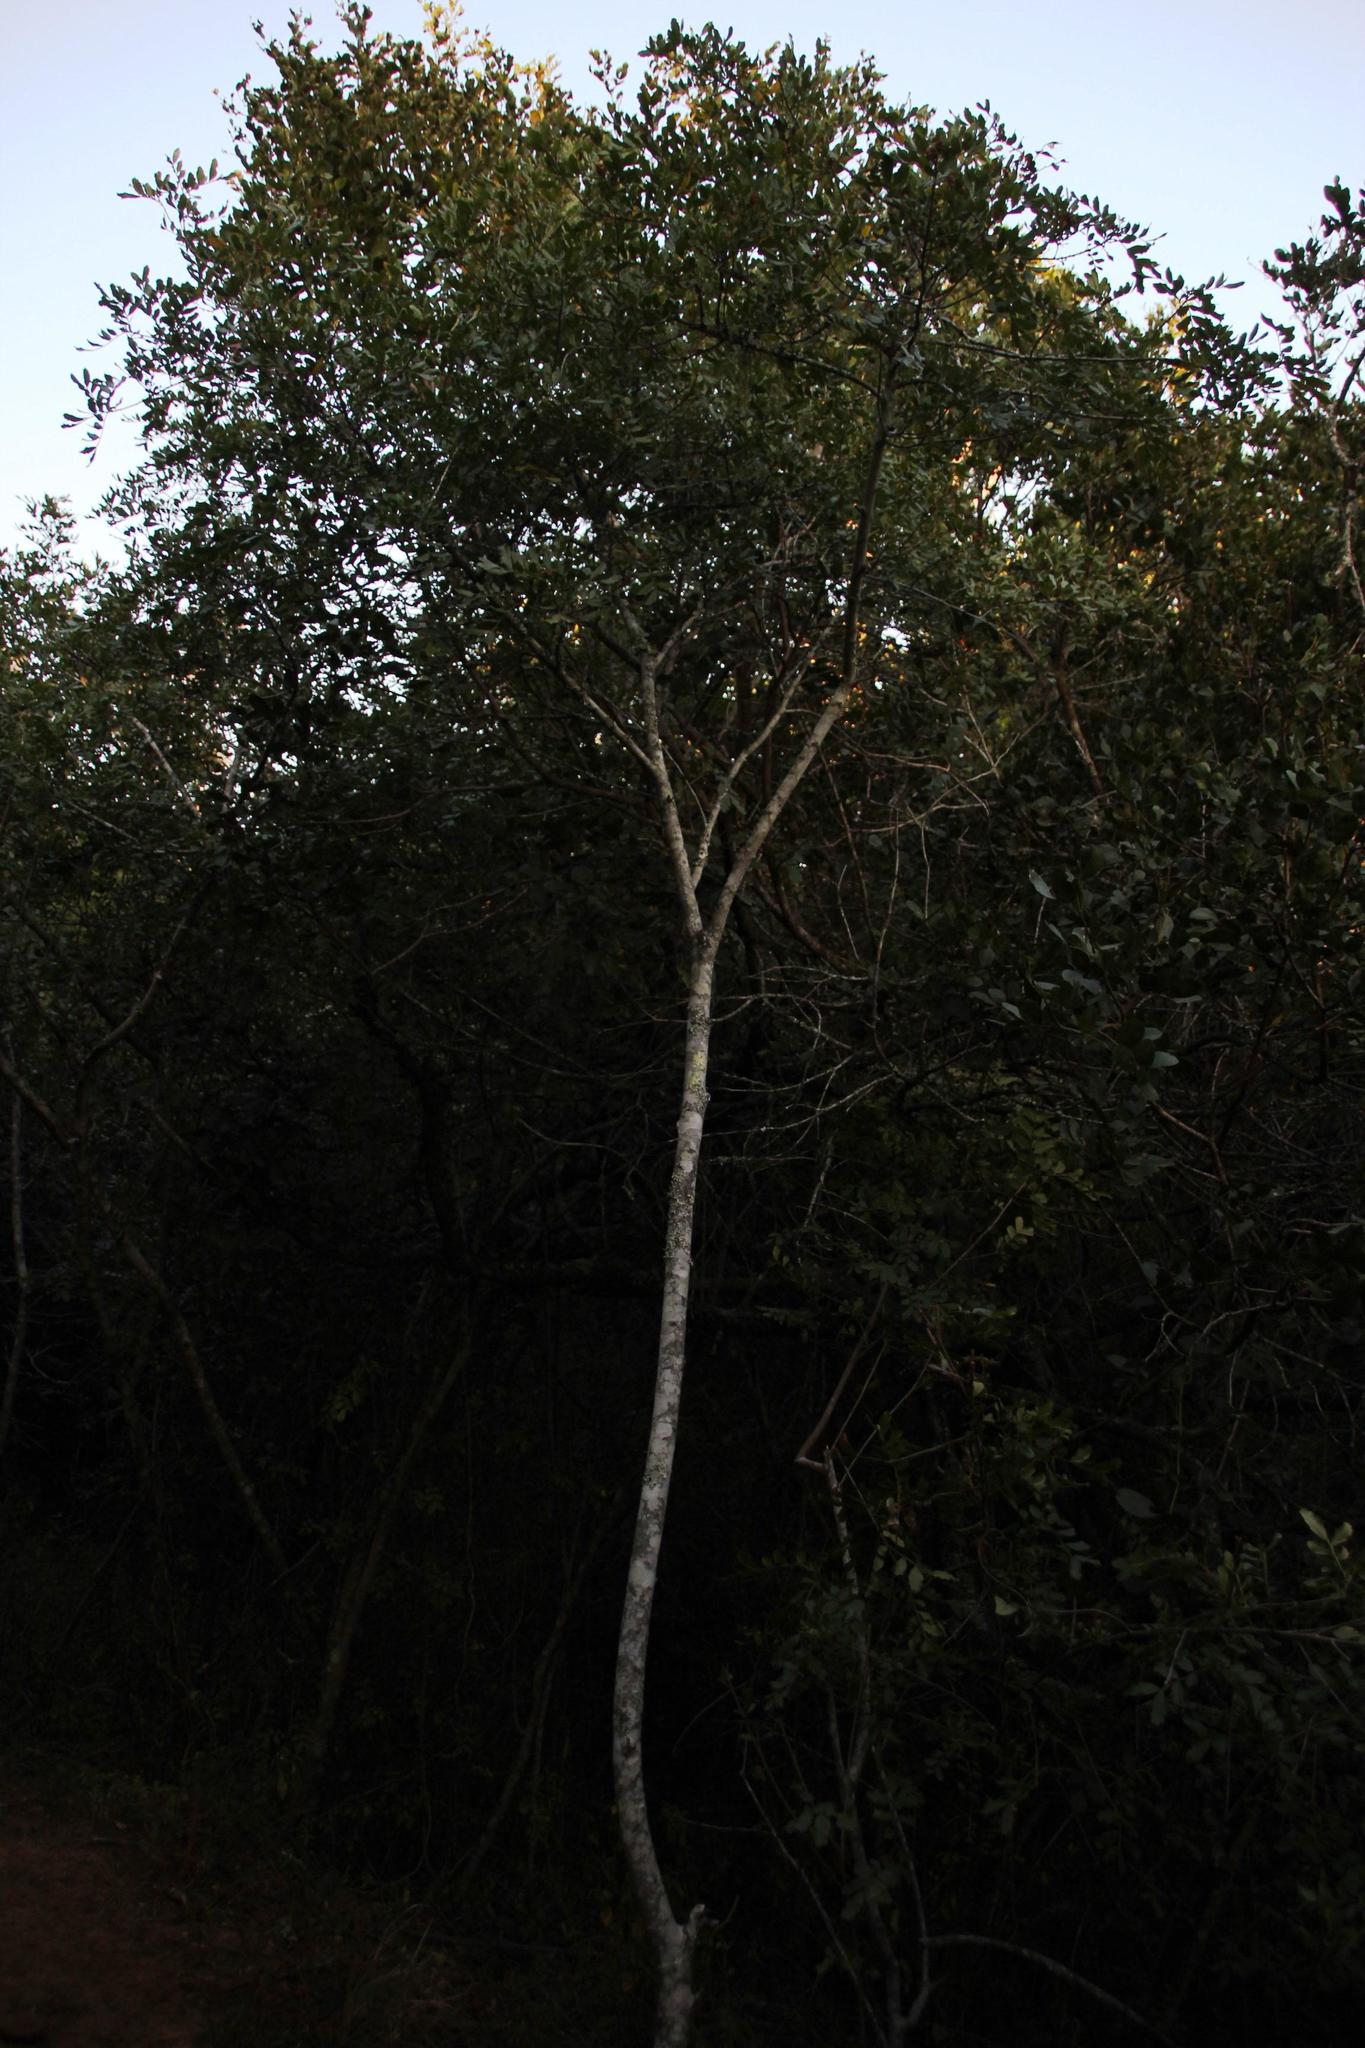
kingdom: Plantae
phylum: Tracheophyta
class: Magnoliopsida
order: Sapindales
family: Sapindaceae
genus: Hippobromus
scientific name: Hippobromus pauciflorus
